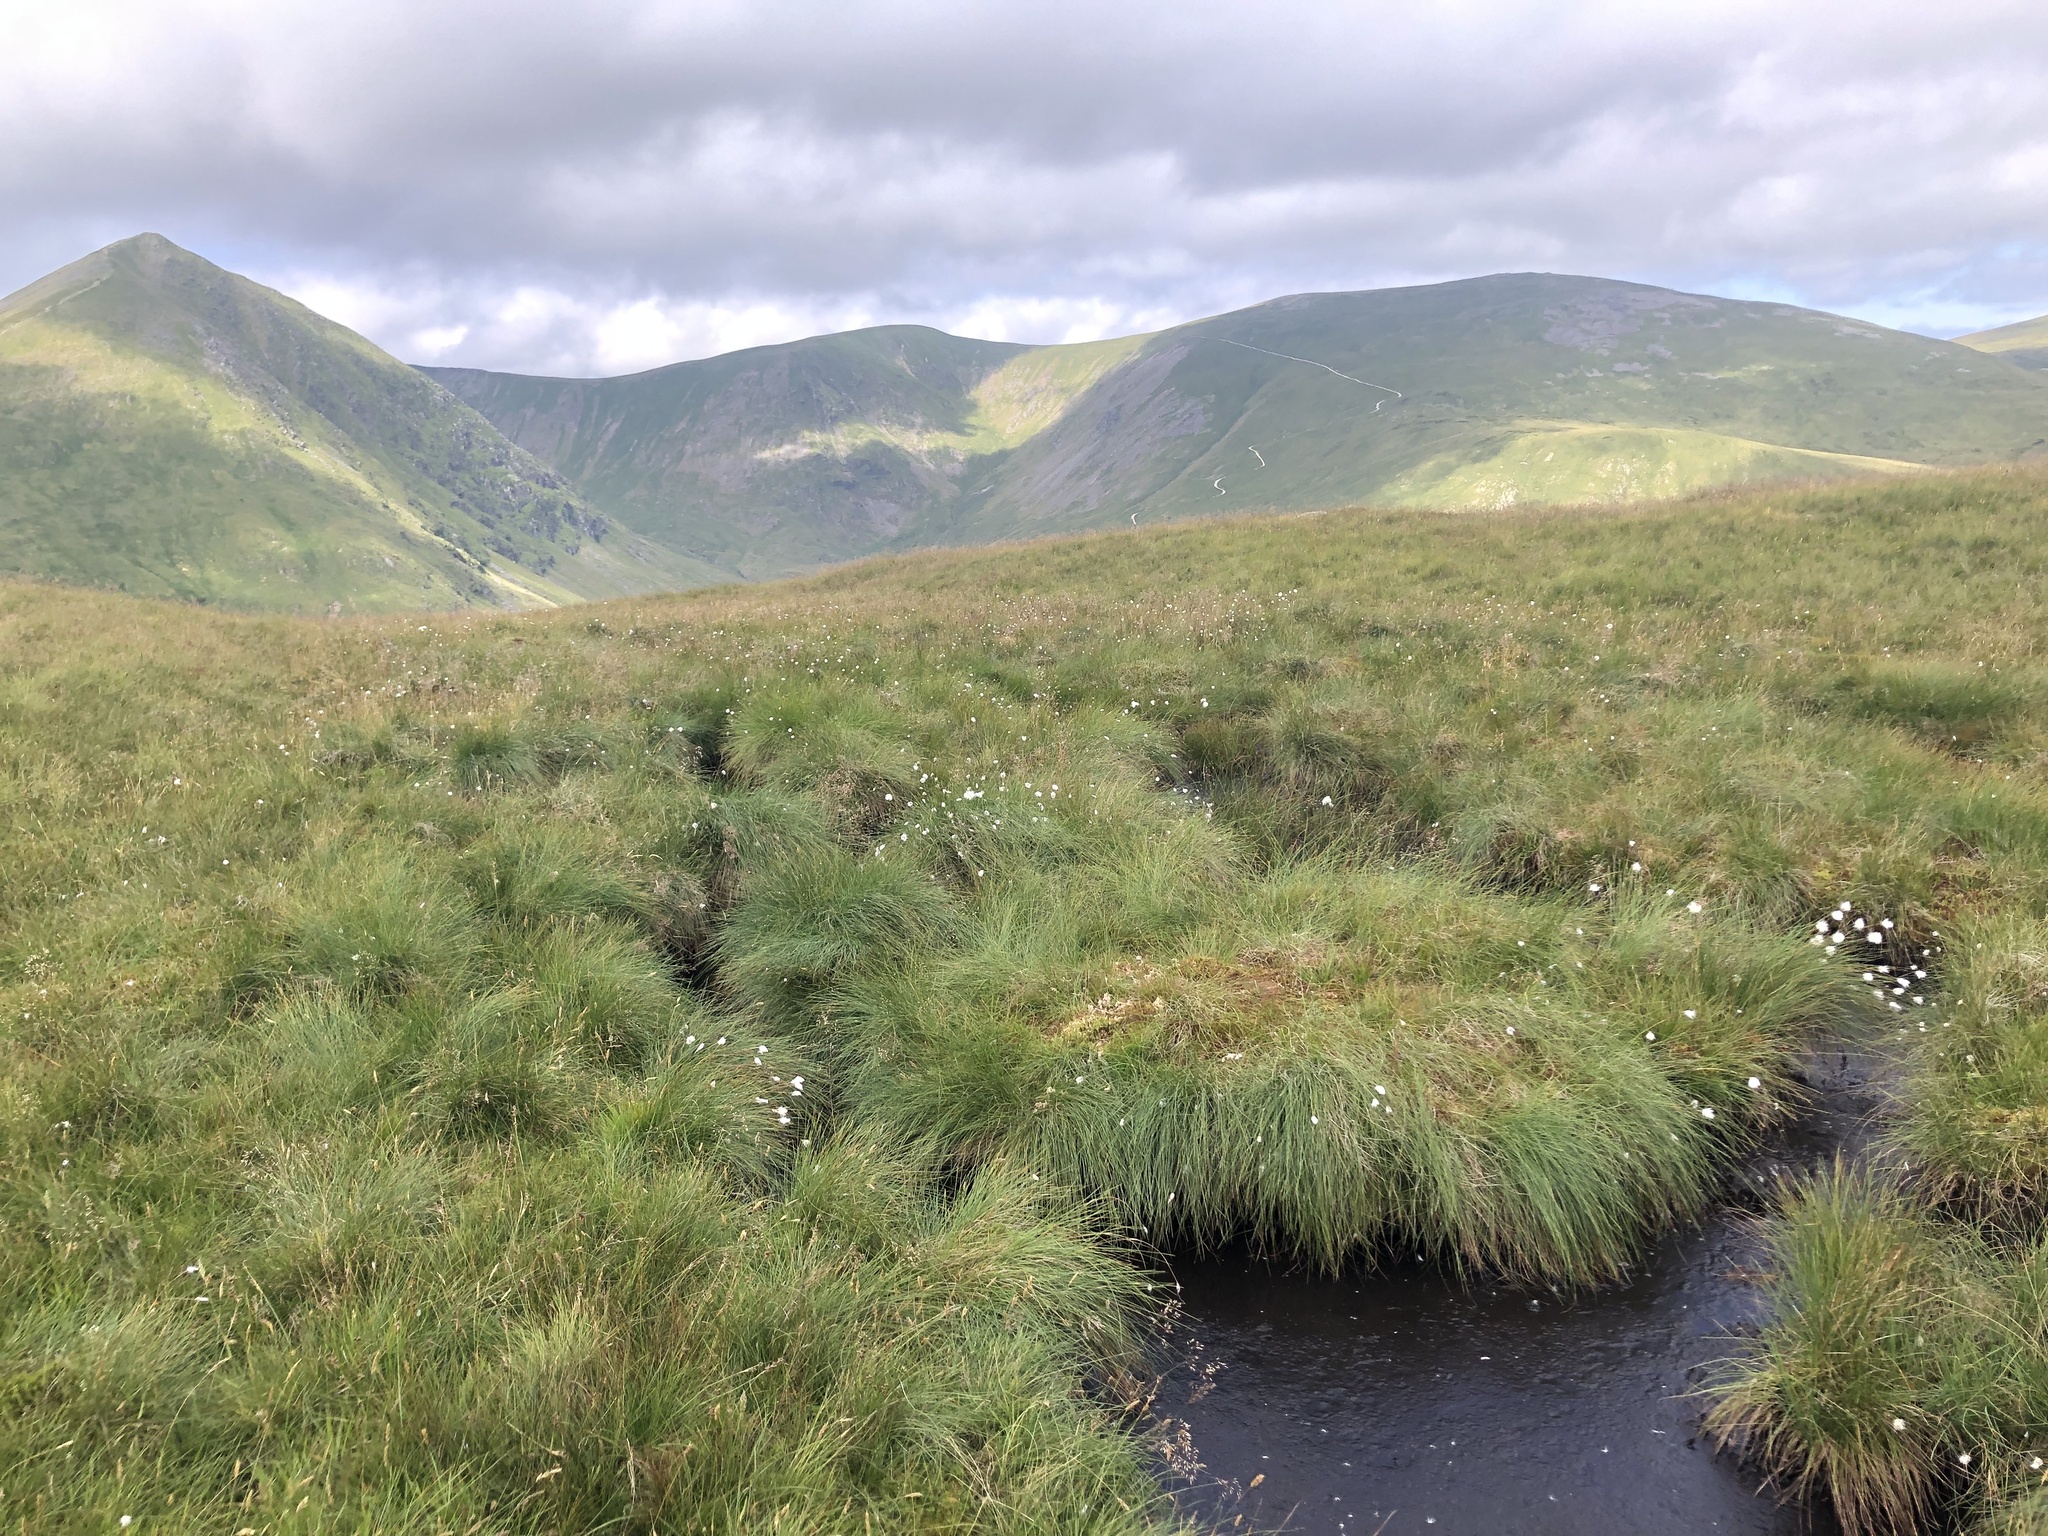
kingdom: Plantae
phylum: Tracheophyta
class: Liliopsida
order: Poales
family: Cyperaceae
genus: Eriophorum
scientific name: Eriophorum vaginatum
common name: Hare's-tail cottongrass
